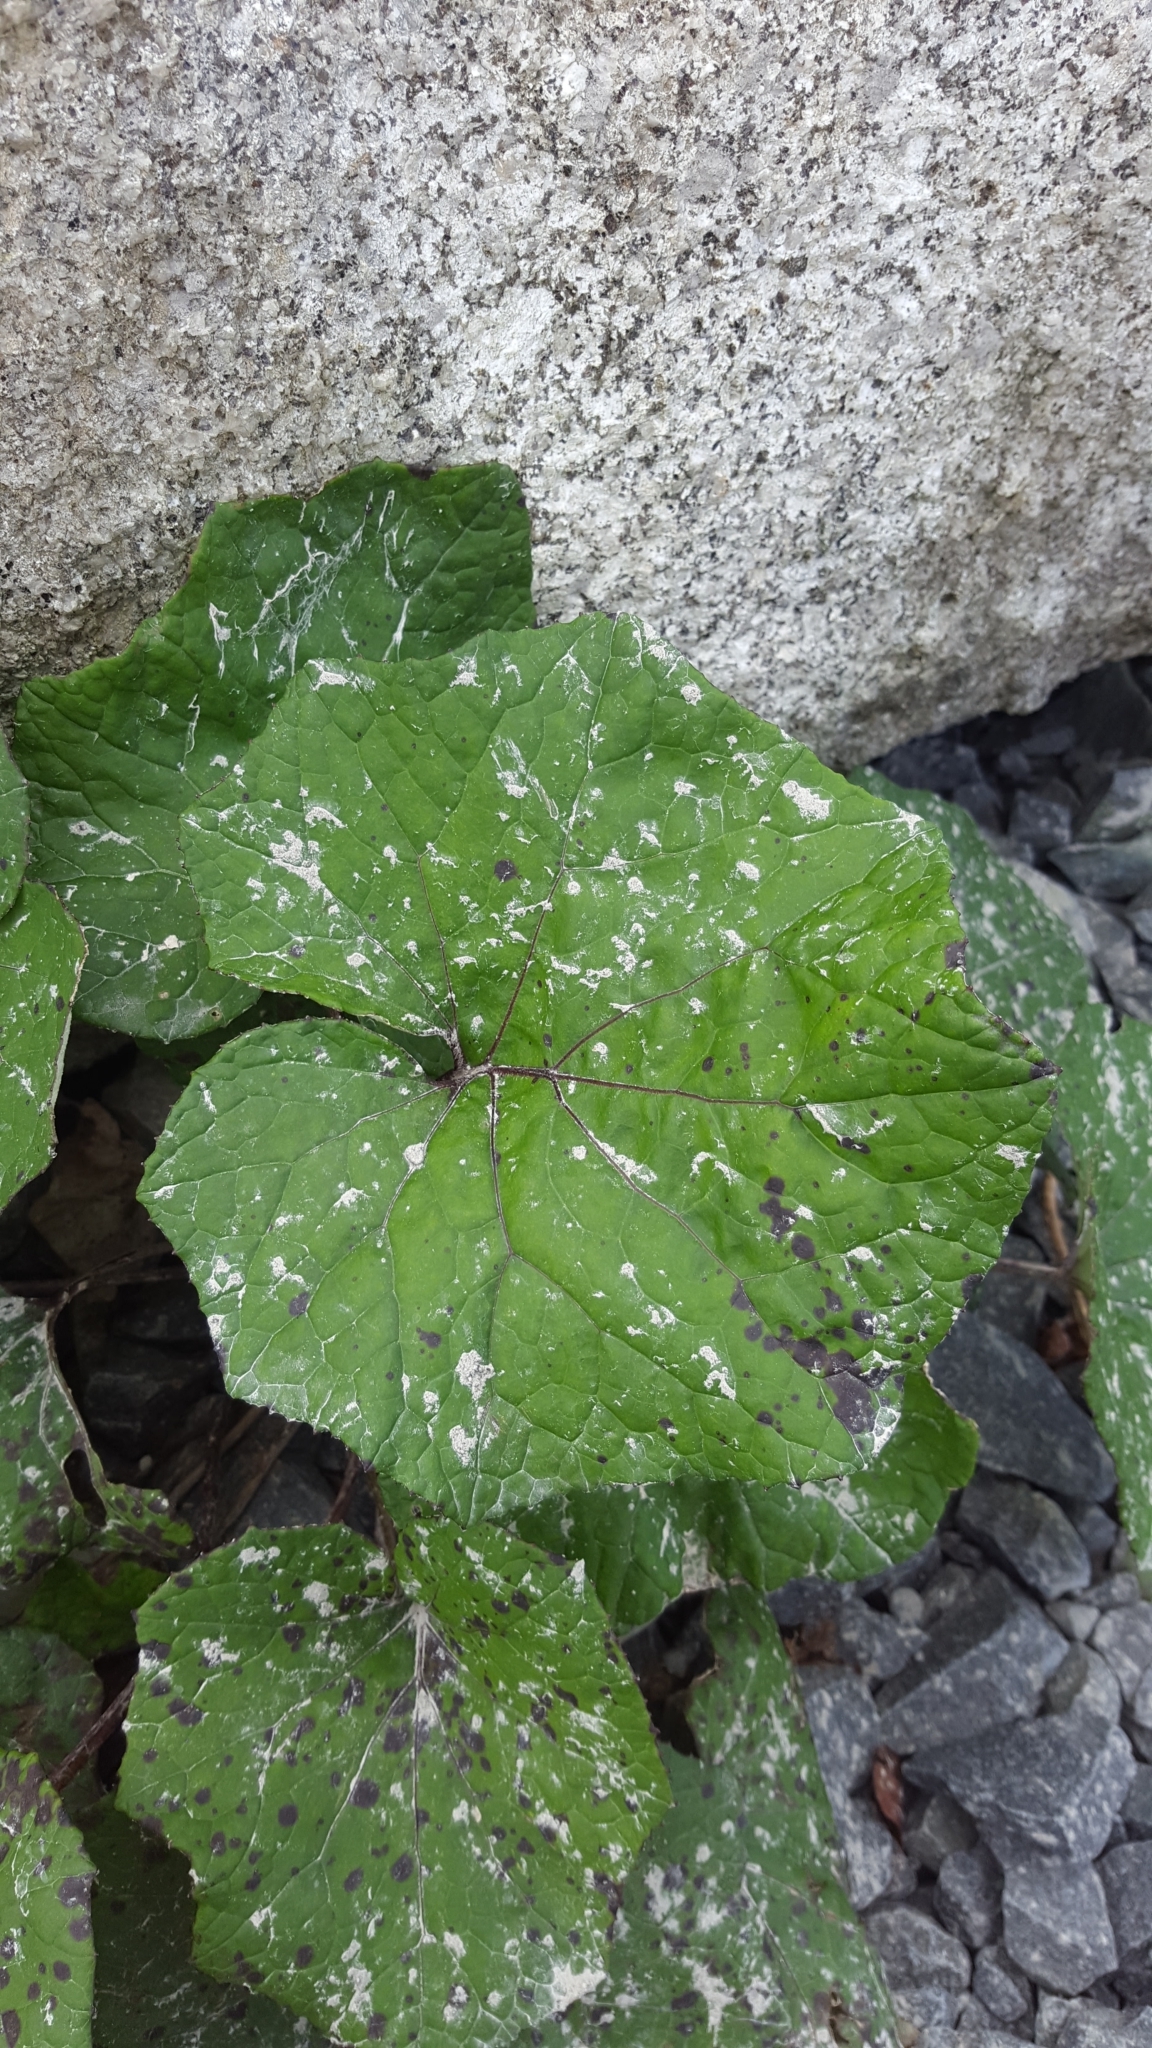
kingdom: Plantae
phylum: Tracheophyta
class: Magnoliopsida
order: Asterales
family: Asteraceae
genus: Tussilago
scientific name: Tussilago farfara
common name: Coltsfoot
